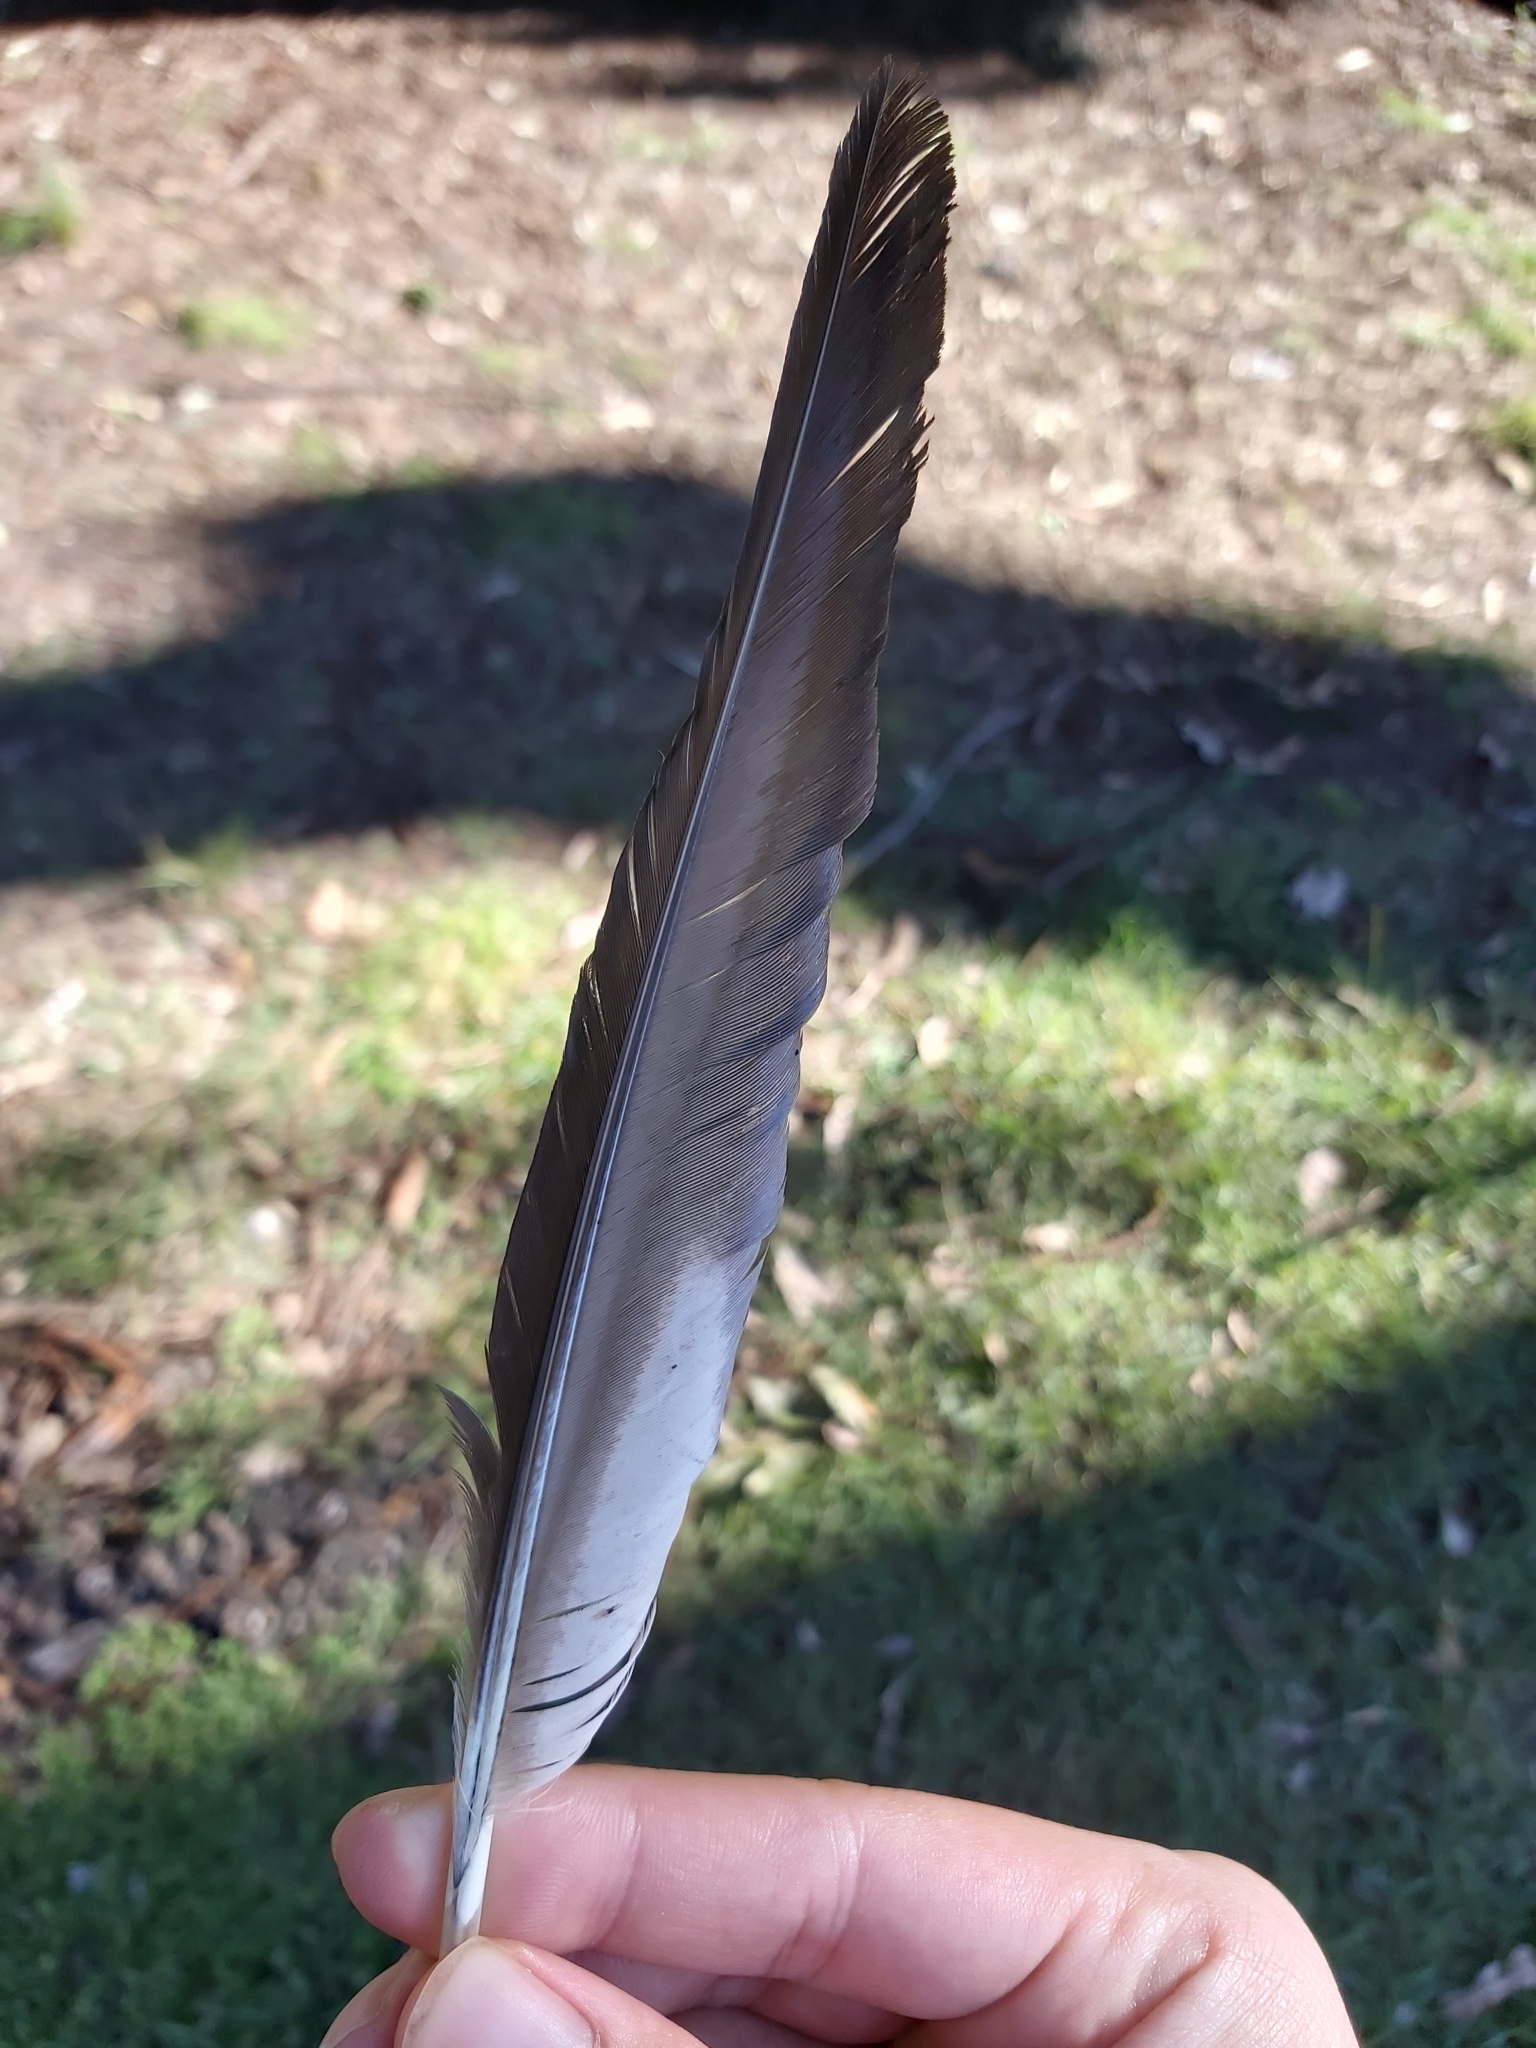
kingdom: Animalia
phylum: Chordata
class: Aves
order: Anseriformes
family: Anatidae
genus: Chenonetta
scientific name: Chenonetta jubata
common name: Maned duck
